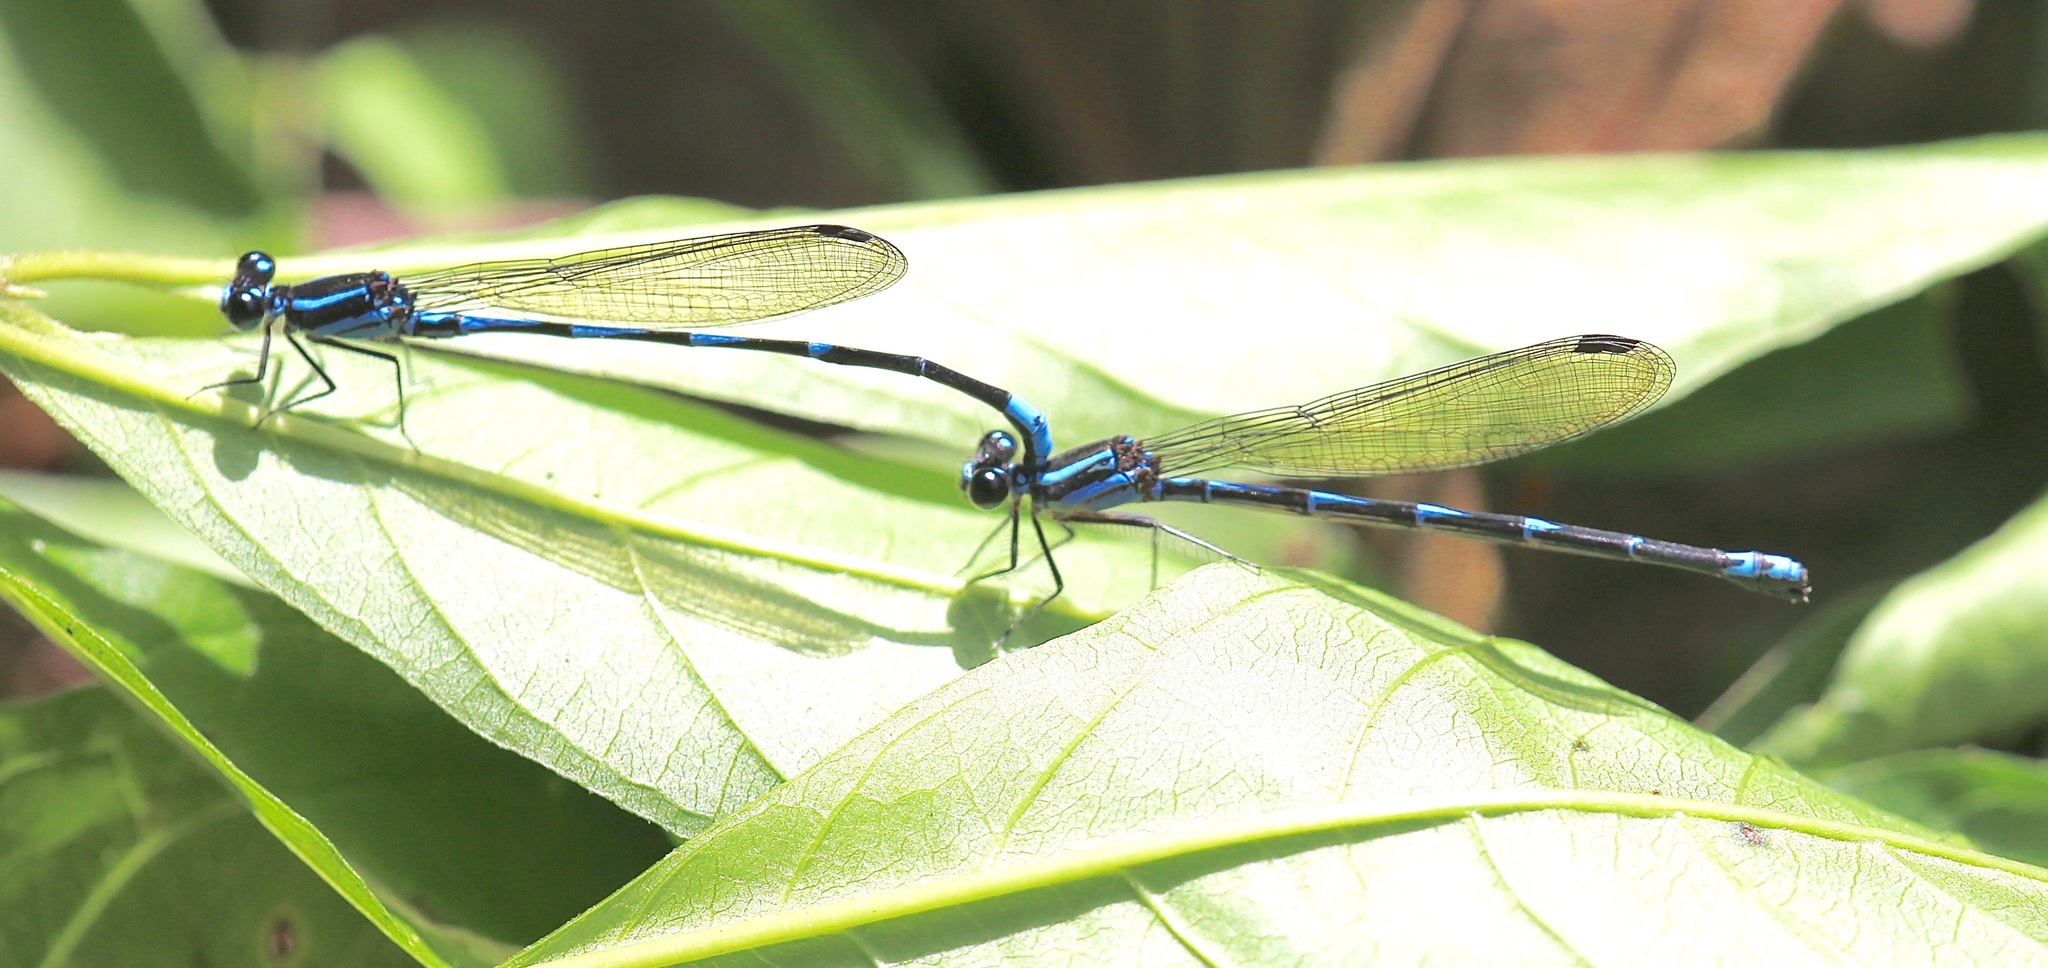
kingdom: Animalia
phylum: Arthropoda
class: Insecta
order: Odonata
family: Coenagrionidae
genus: Argia
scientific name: Argia adamsi
